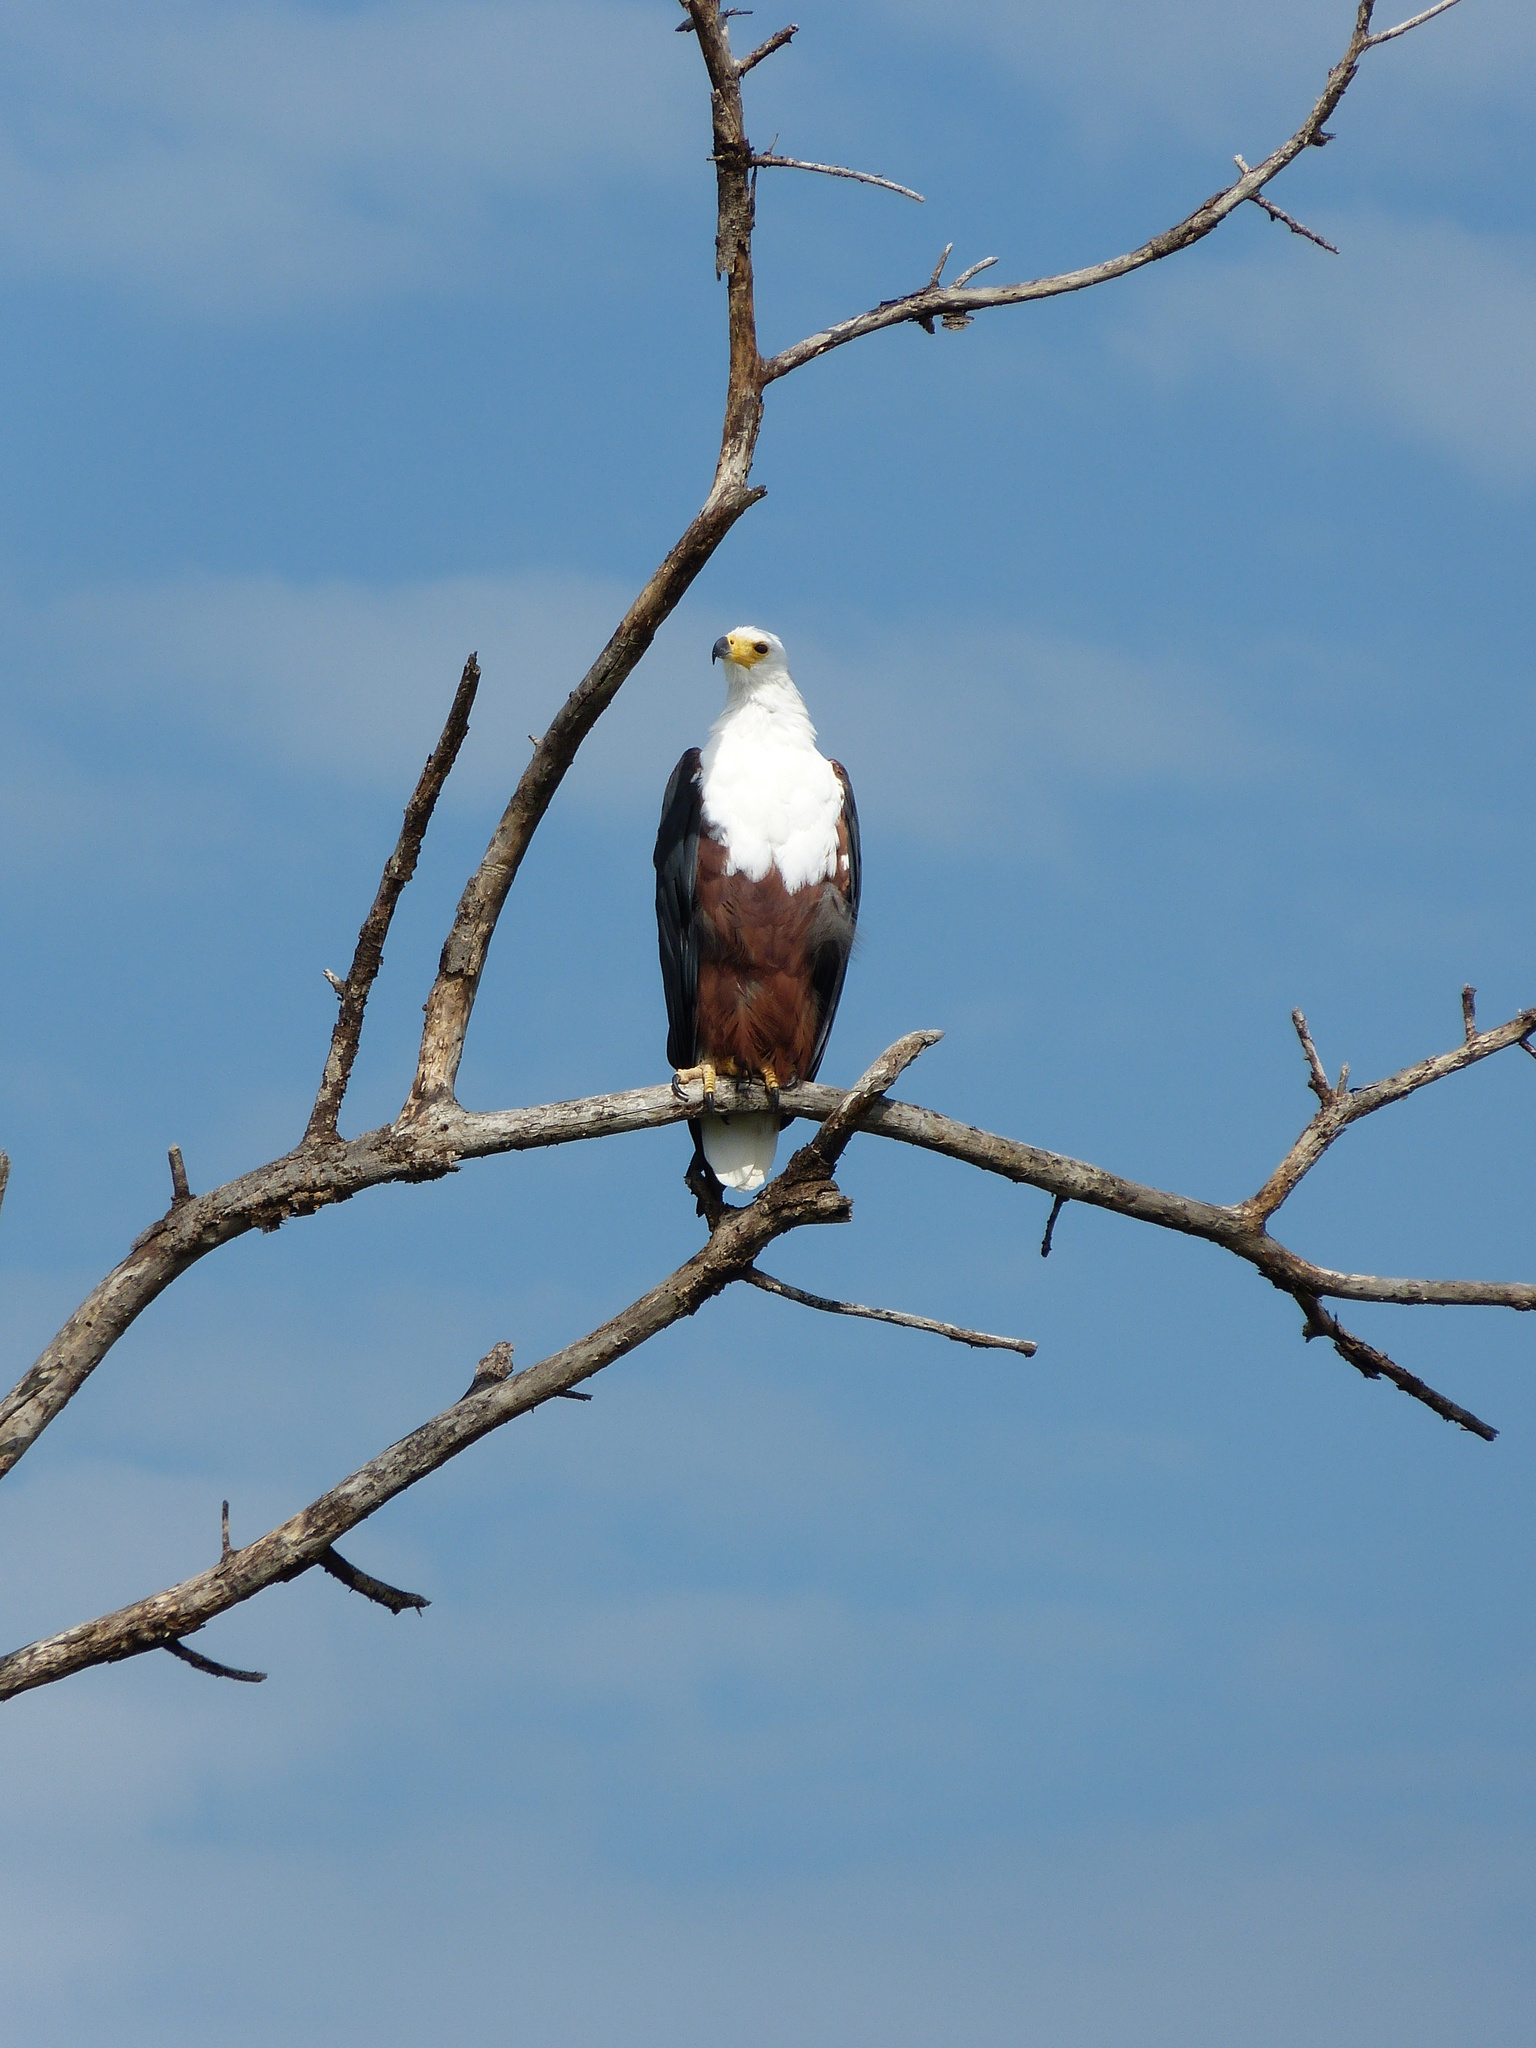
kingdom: Animalia
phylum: Chordata
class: Aves
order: Accipitriformes
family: Accipitridae
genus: Haliaeetus
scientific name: Haliaeetus vocifer
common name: African fish eagle
